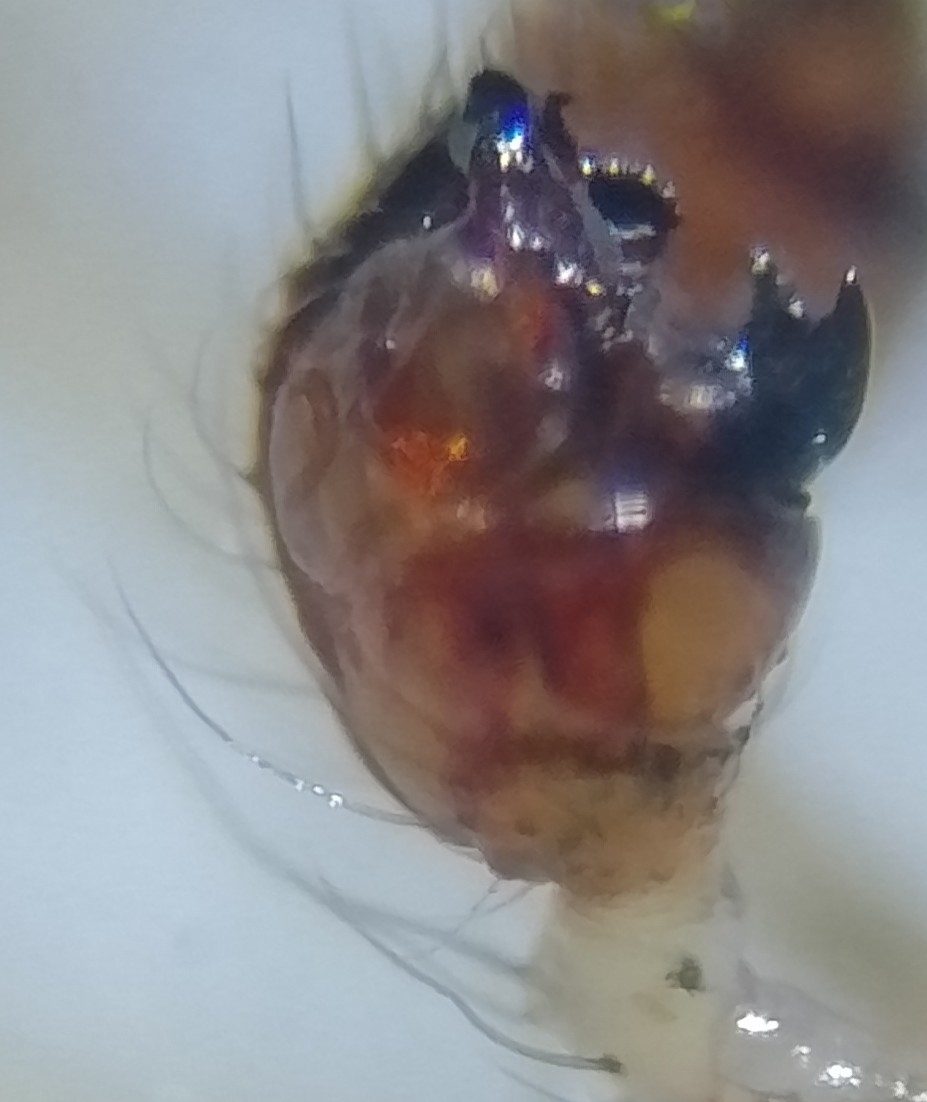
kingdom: Animalia
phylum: Arthropoda
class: Arachnida
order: Araneae
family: Theridiidae
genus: Theridion
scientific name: Theridion varians
